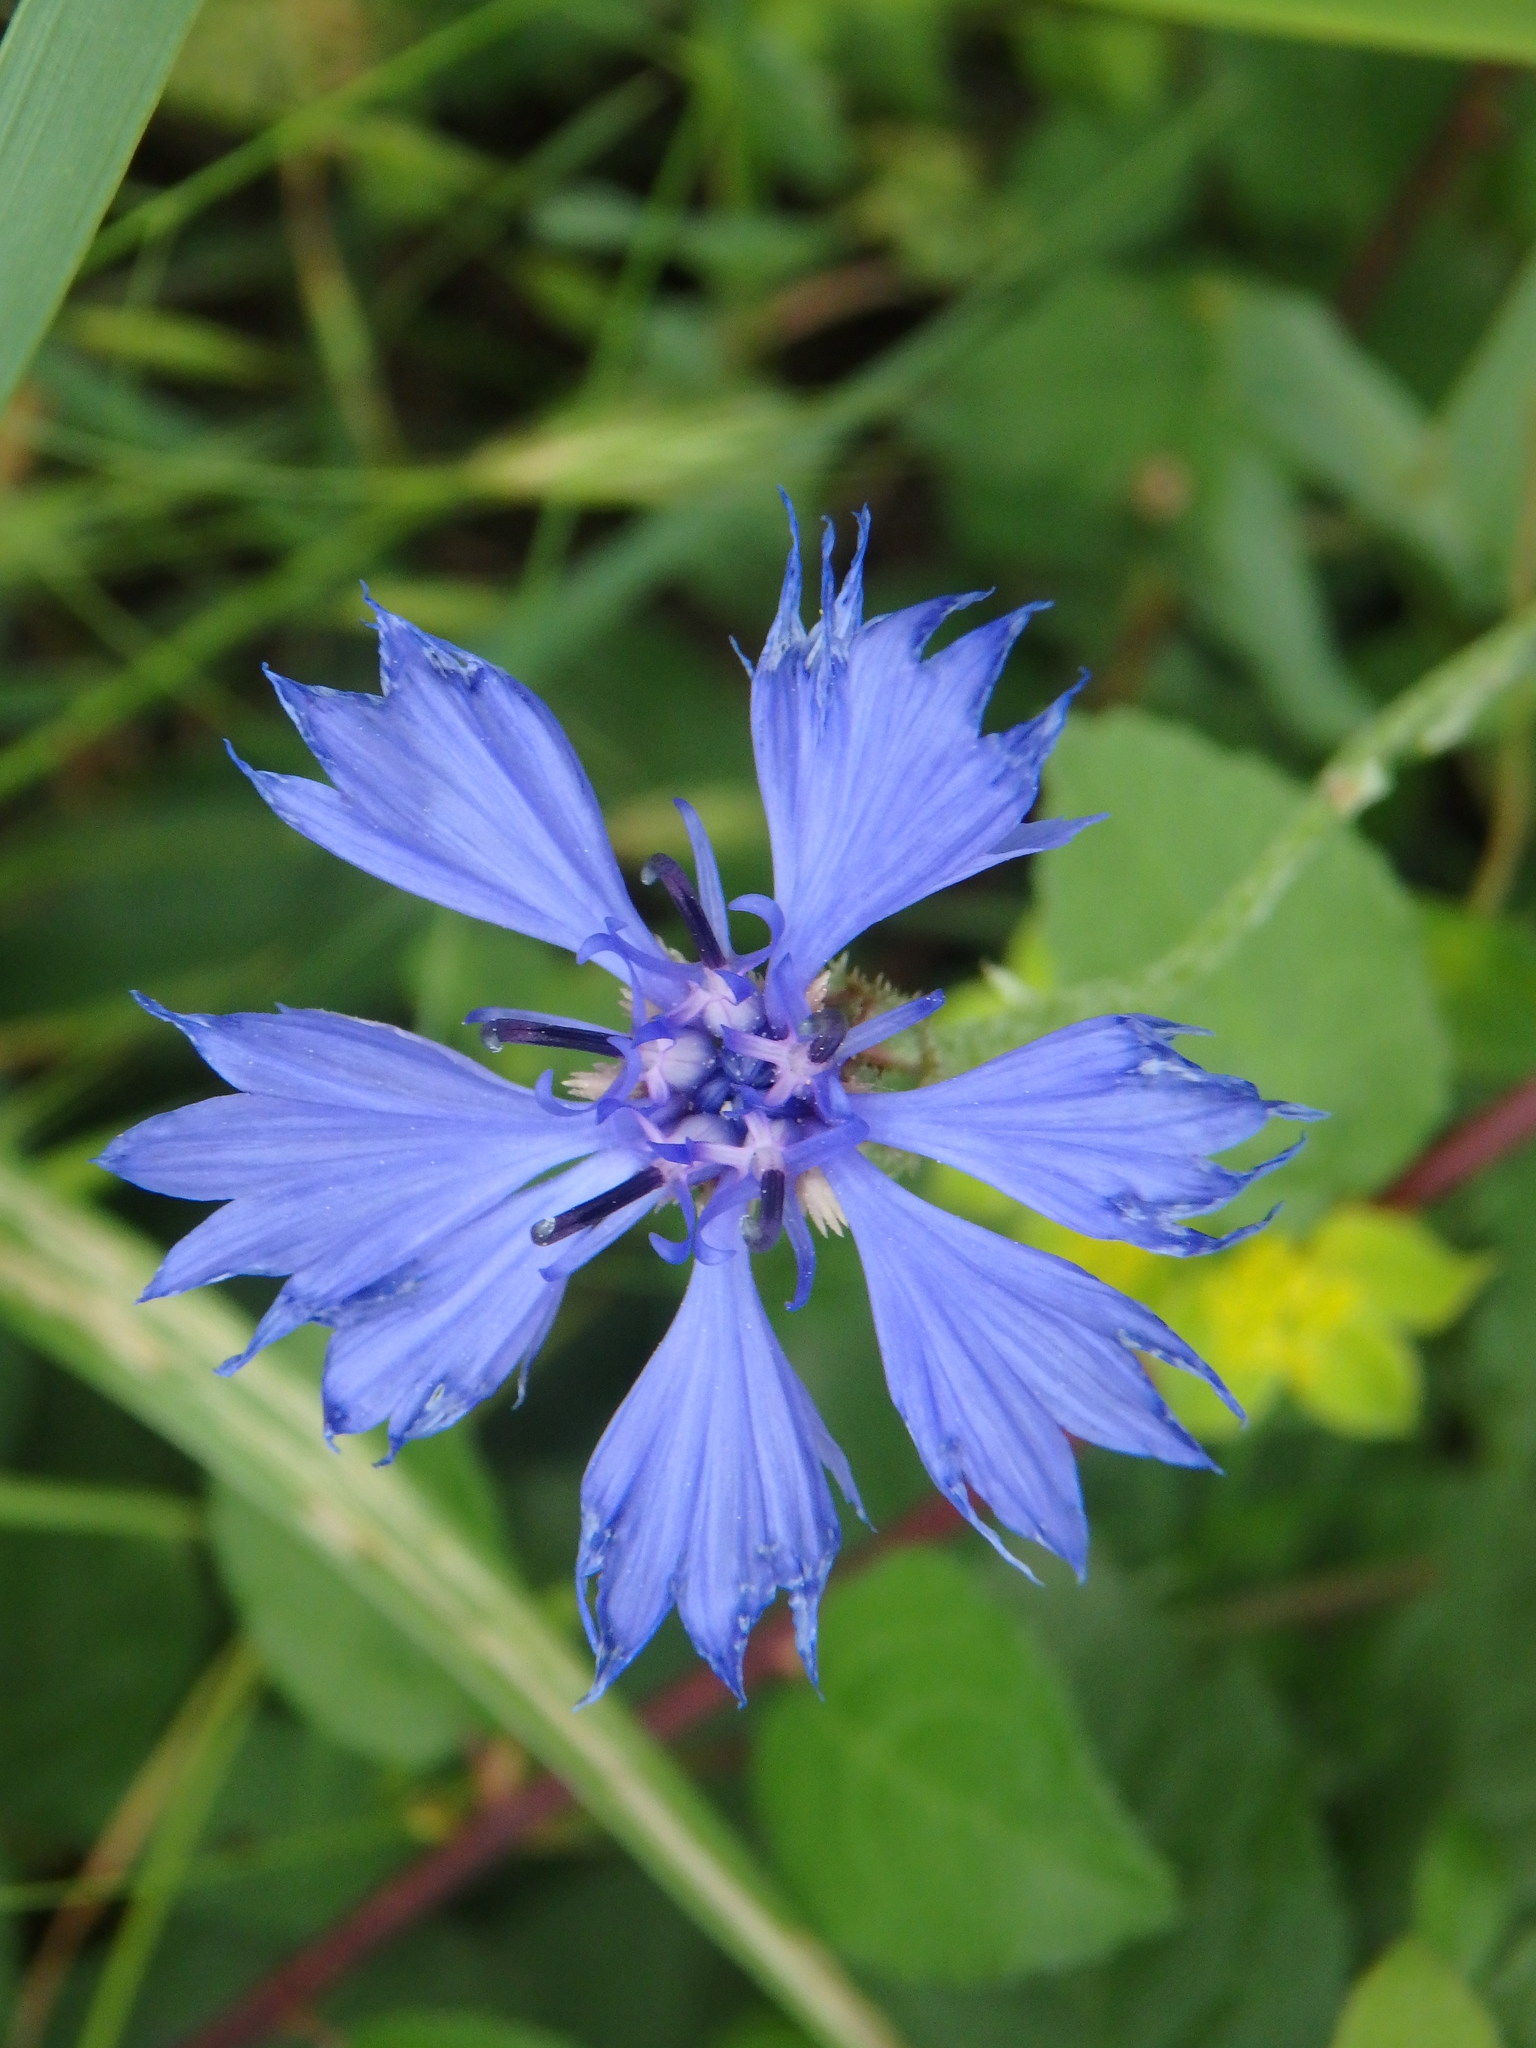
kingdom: Plantae
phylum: Tracheophyta
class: Magnoliopsida
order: Asterales
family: Asteraceae
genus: Centaurea
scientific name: Centaurea cyanus
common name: Cornflower
